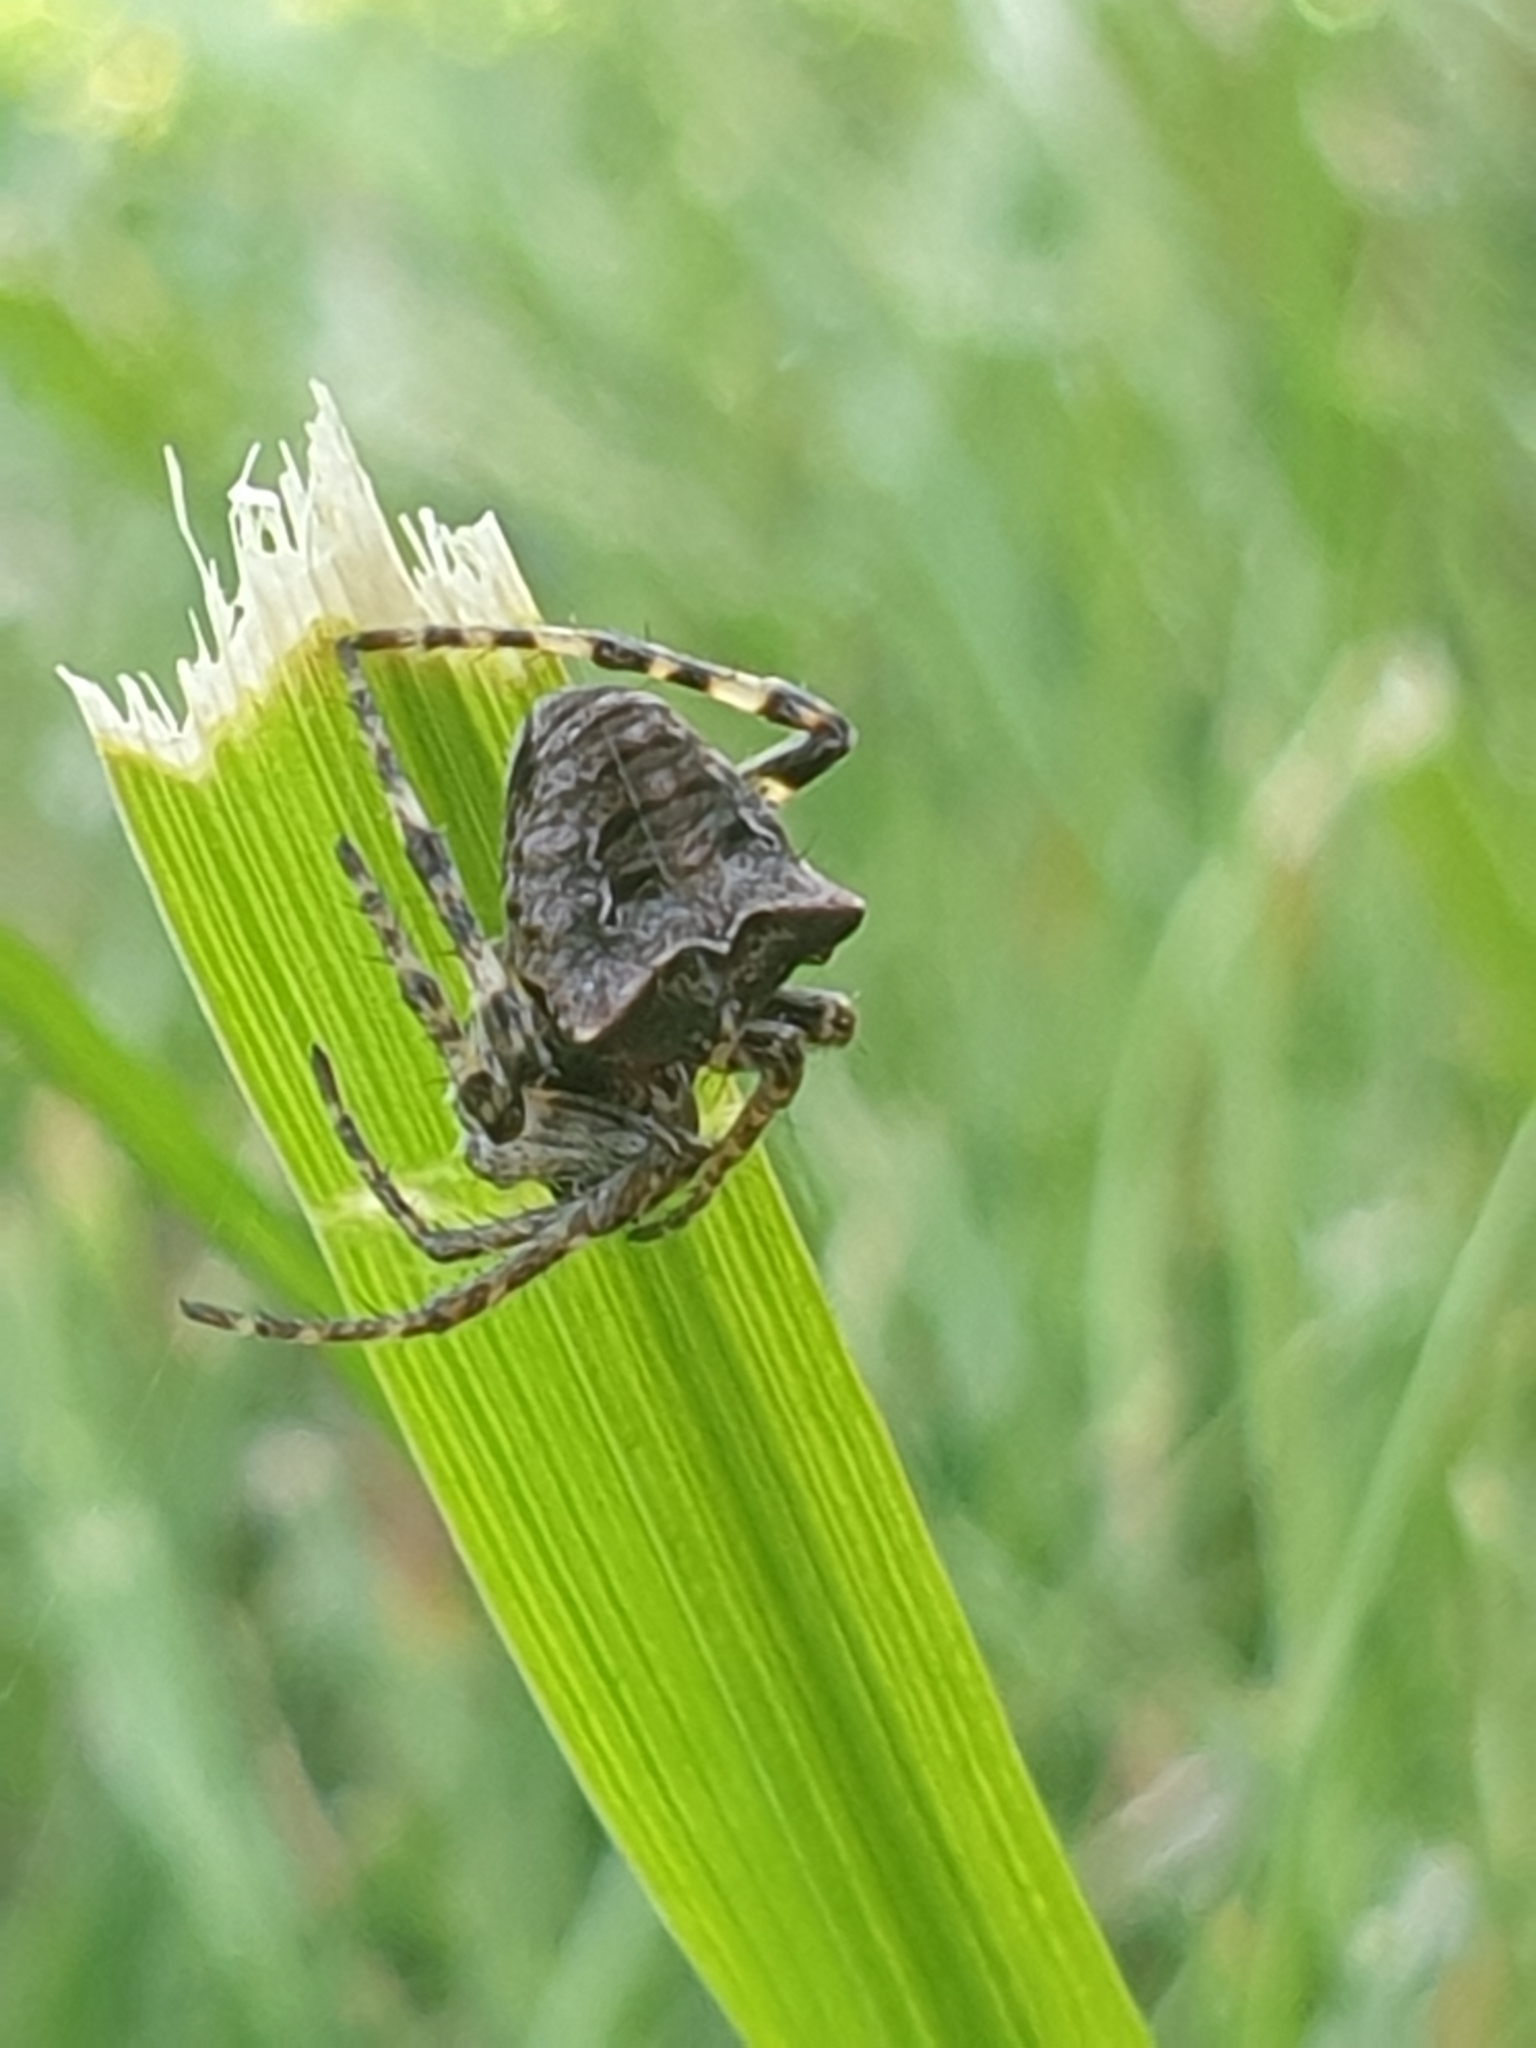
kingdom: Animalia
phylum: Arthropoda
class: Arachnida
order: Araneae
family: Araneidae
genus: Gibbaranea
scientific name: Gibbaranea bituberculata
